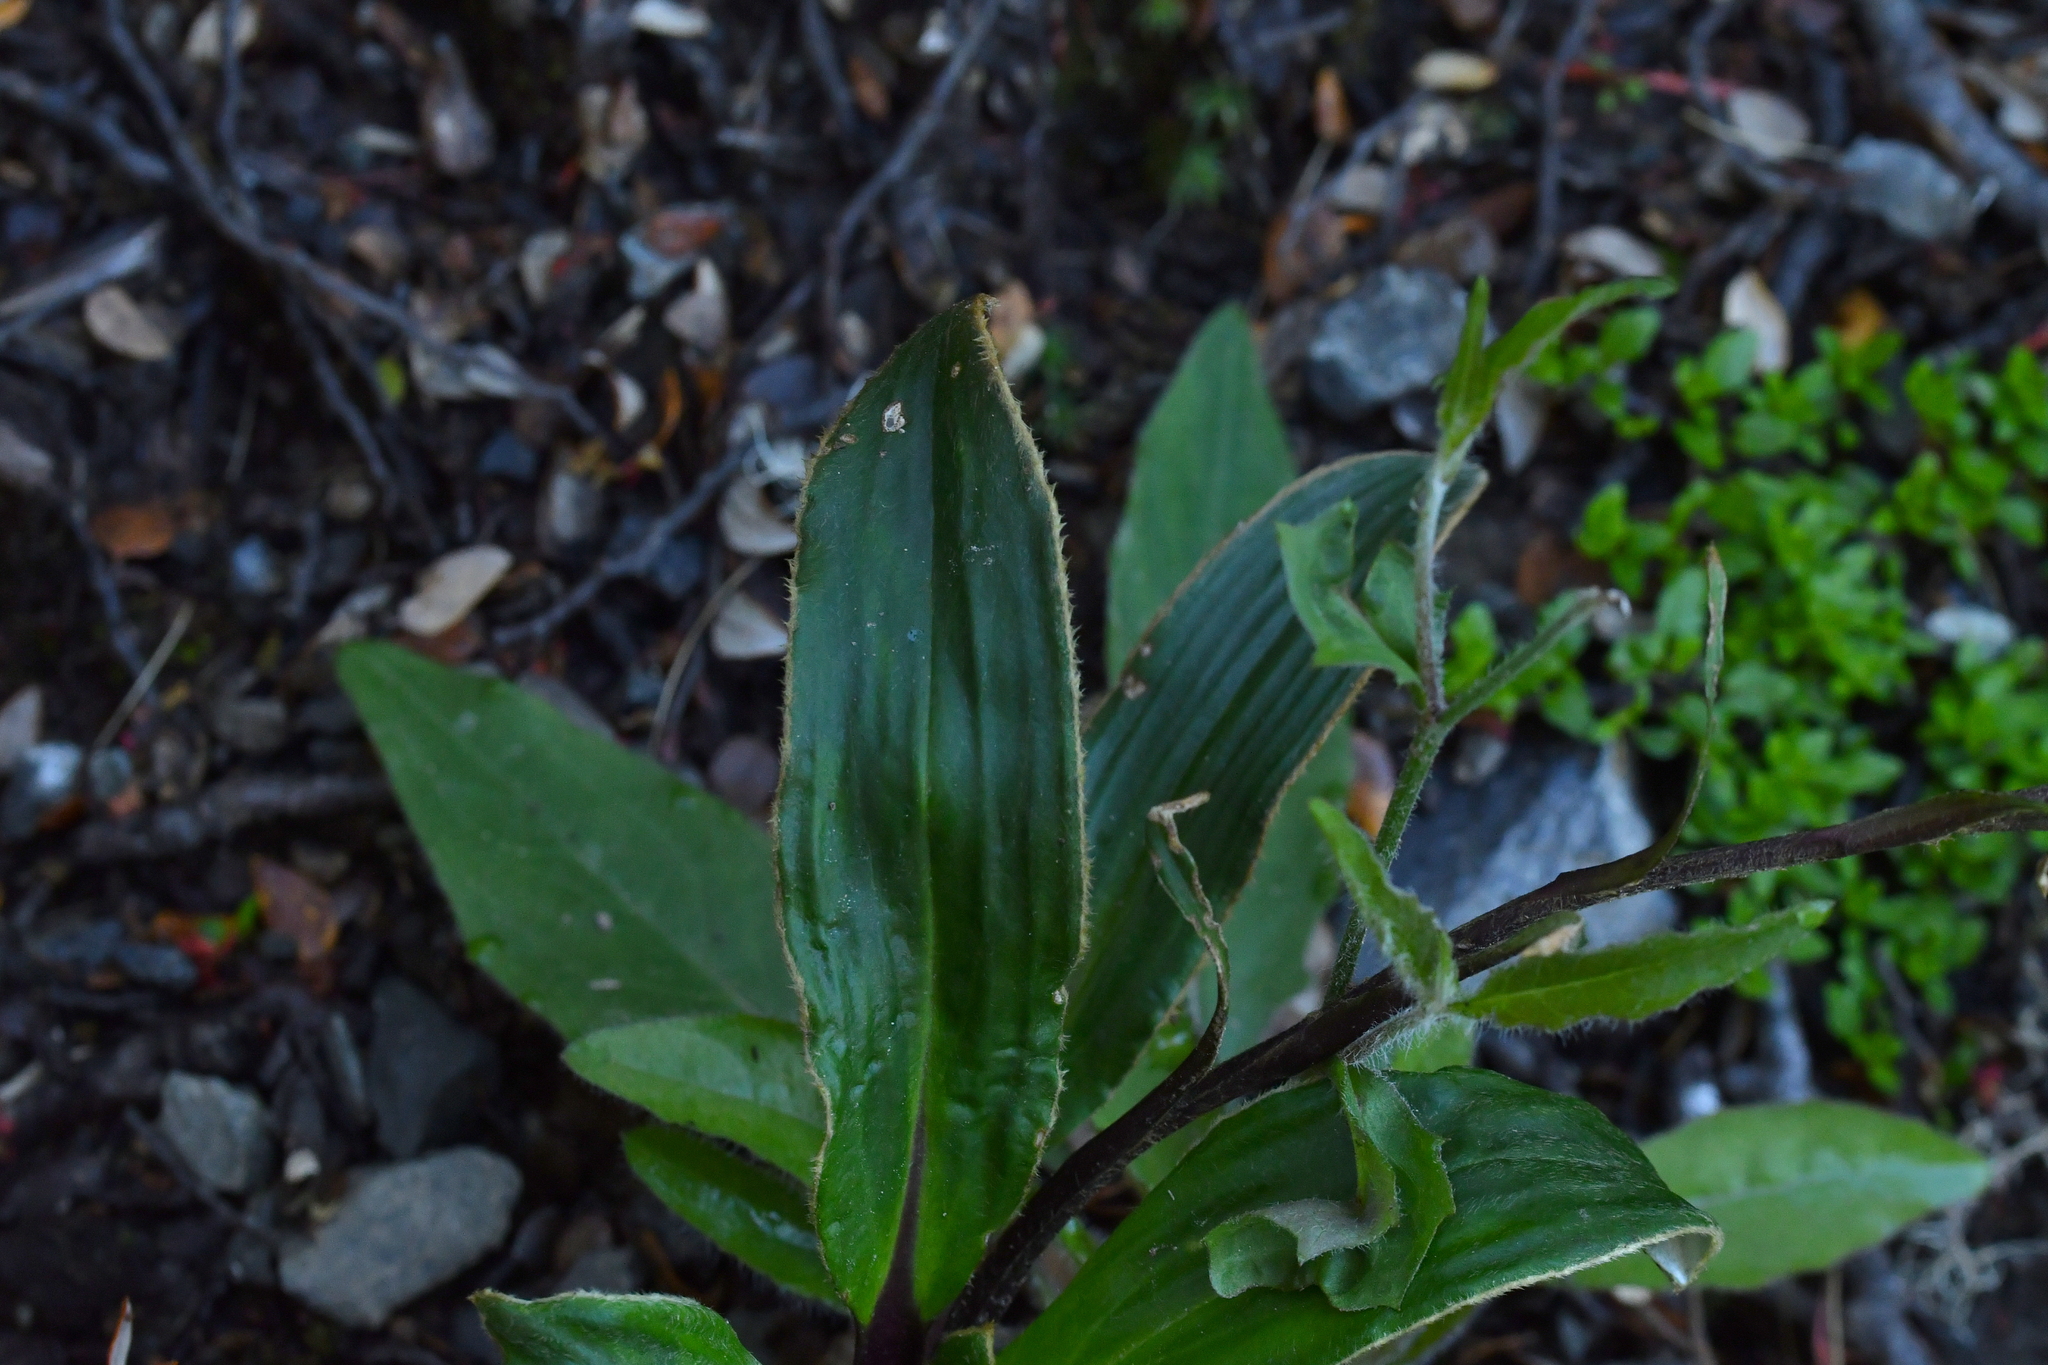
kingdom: Plantae
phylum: Tracheophyta
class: Magnoliopsida
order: Asterales
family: Asteraceae
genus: Celmisia
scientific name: Celmisia verbascifolia
